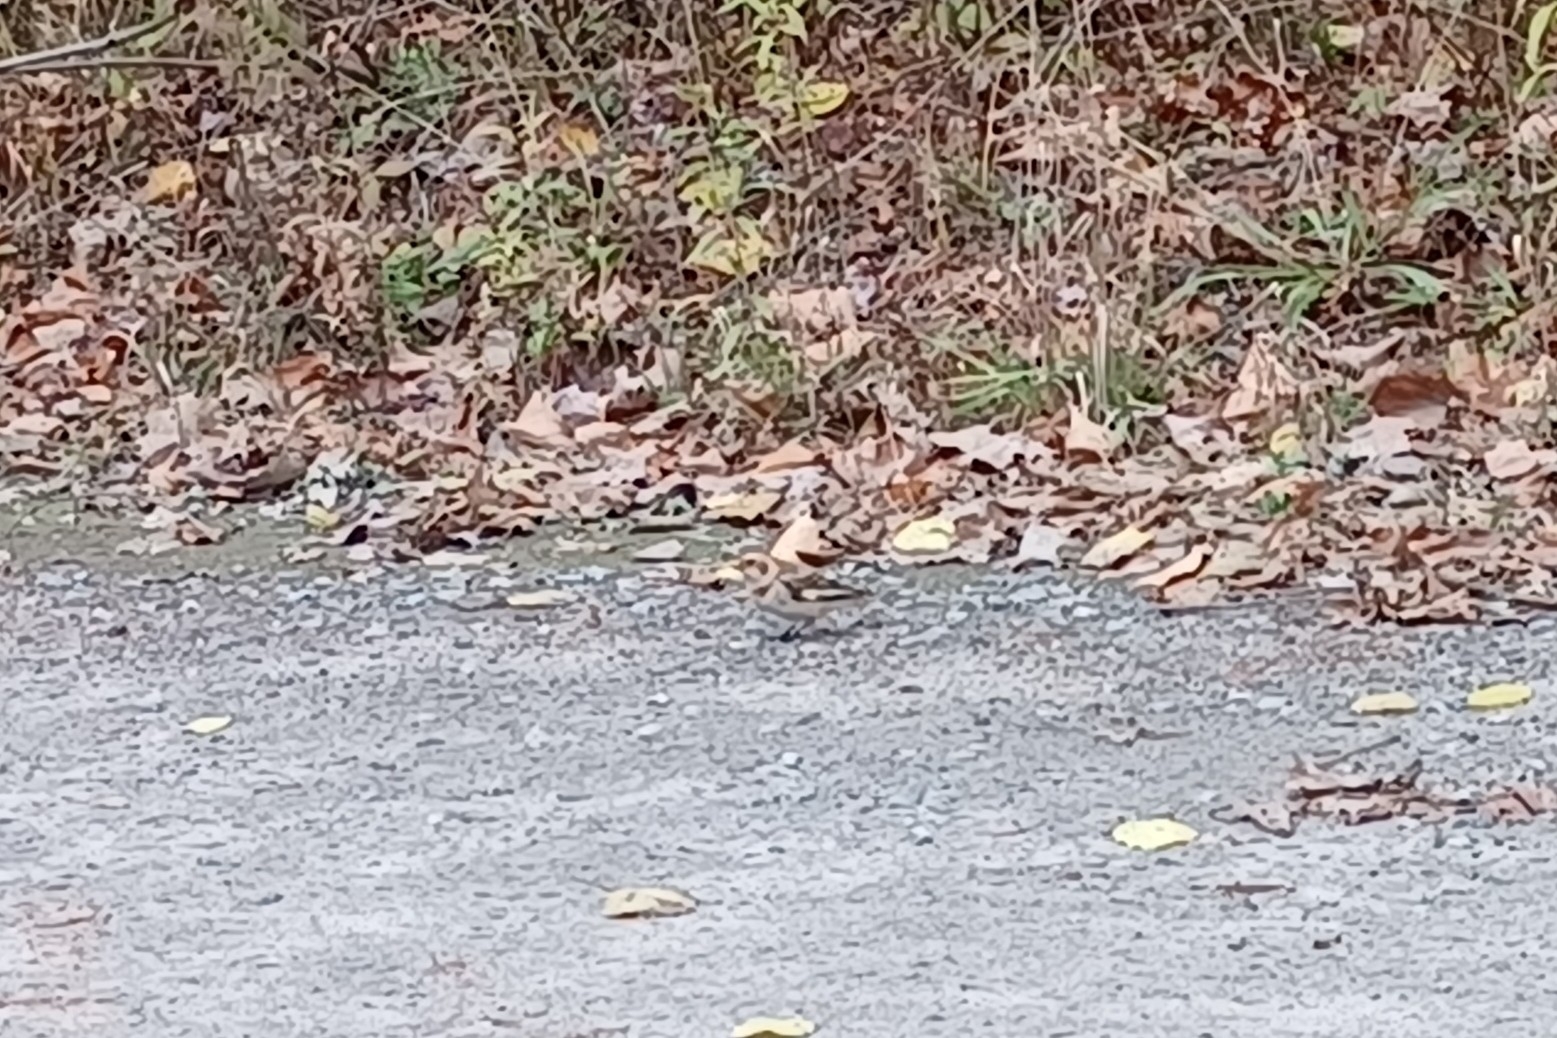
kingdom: Animalia
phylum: Chordata
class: Aves
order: Passeriformes
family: Calcariidae
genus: Plectrophenax
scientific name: Plectrophenax nivalis
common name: Snow bunting
